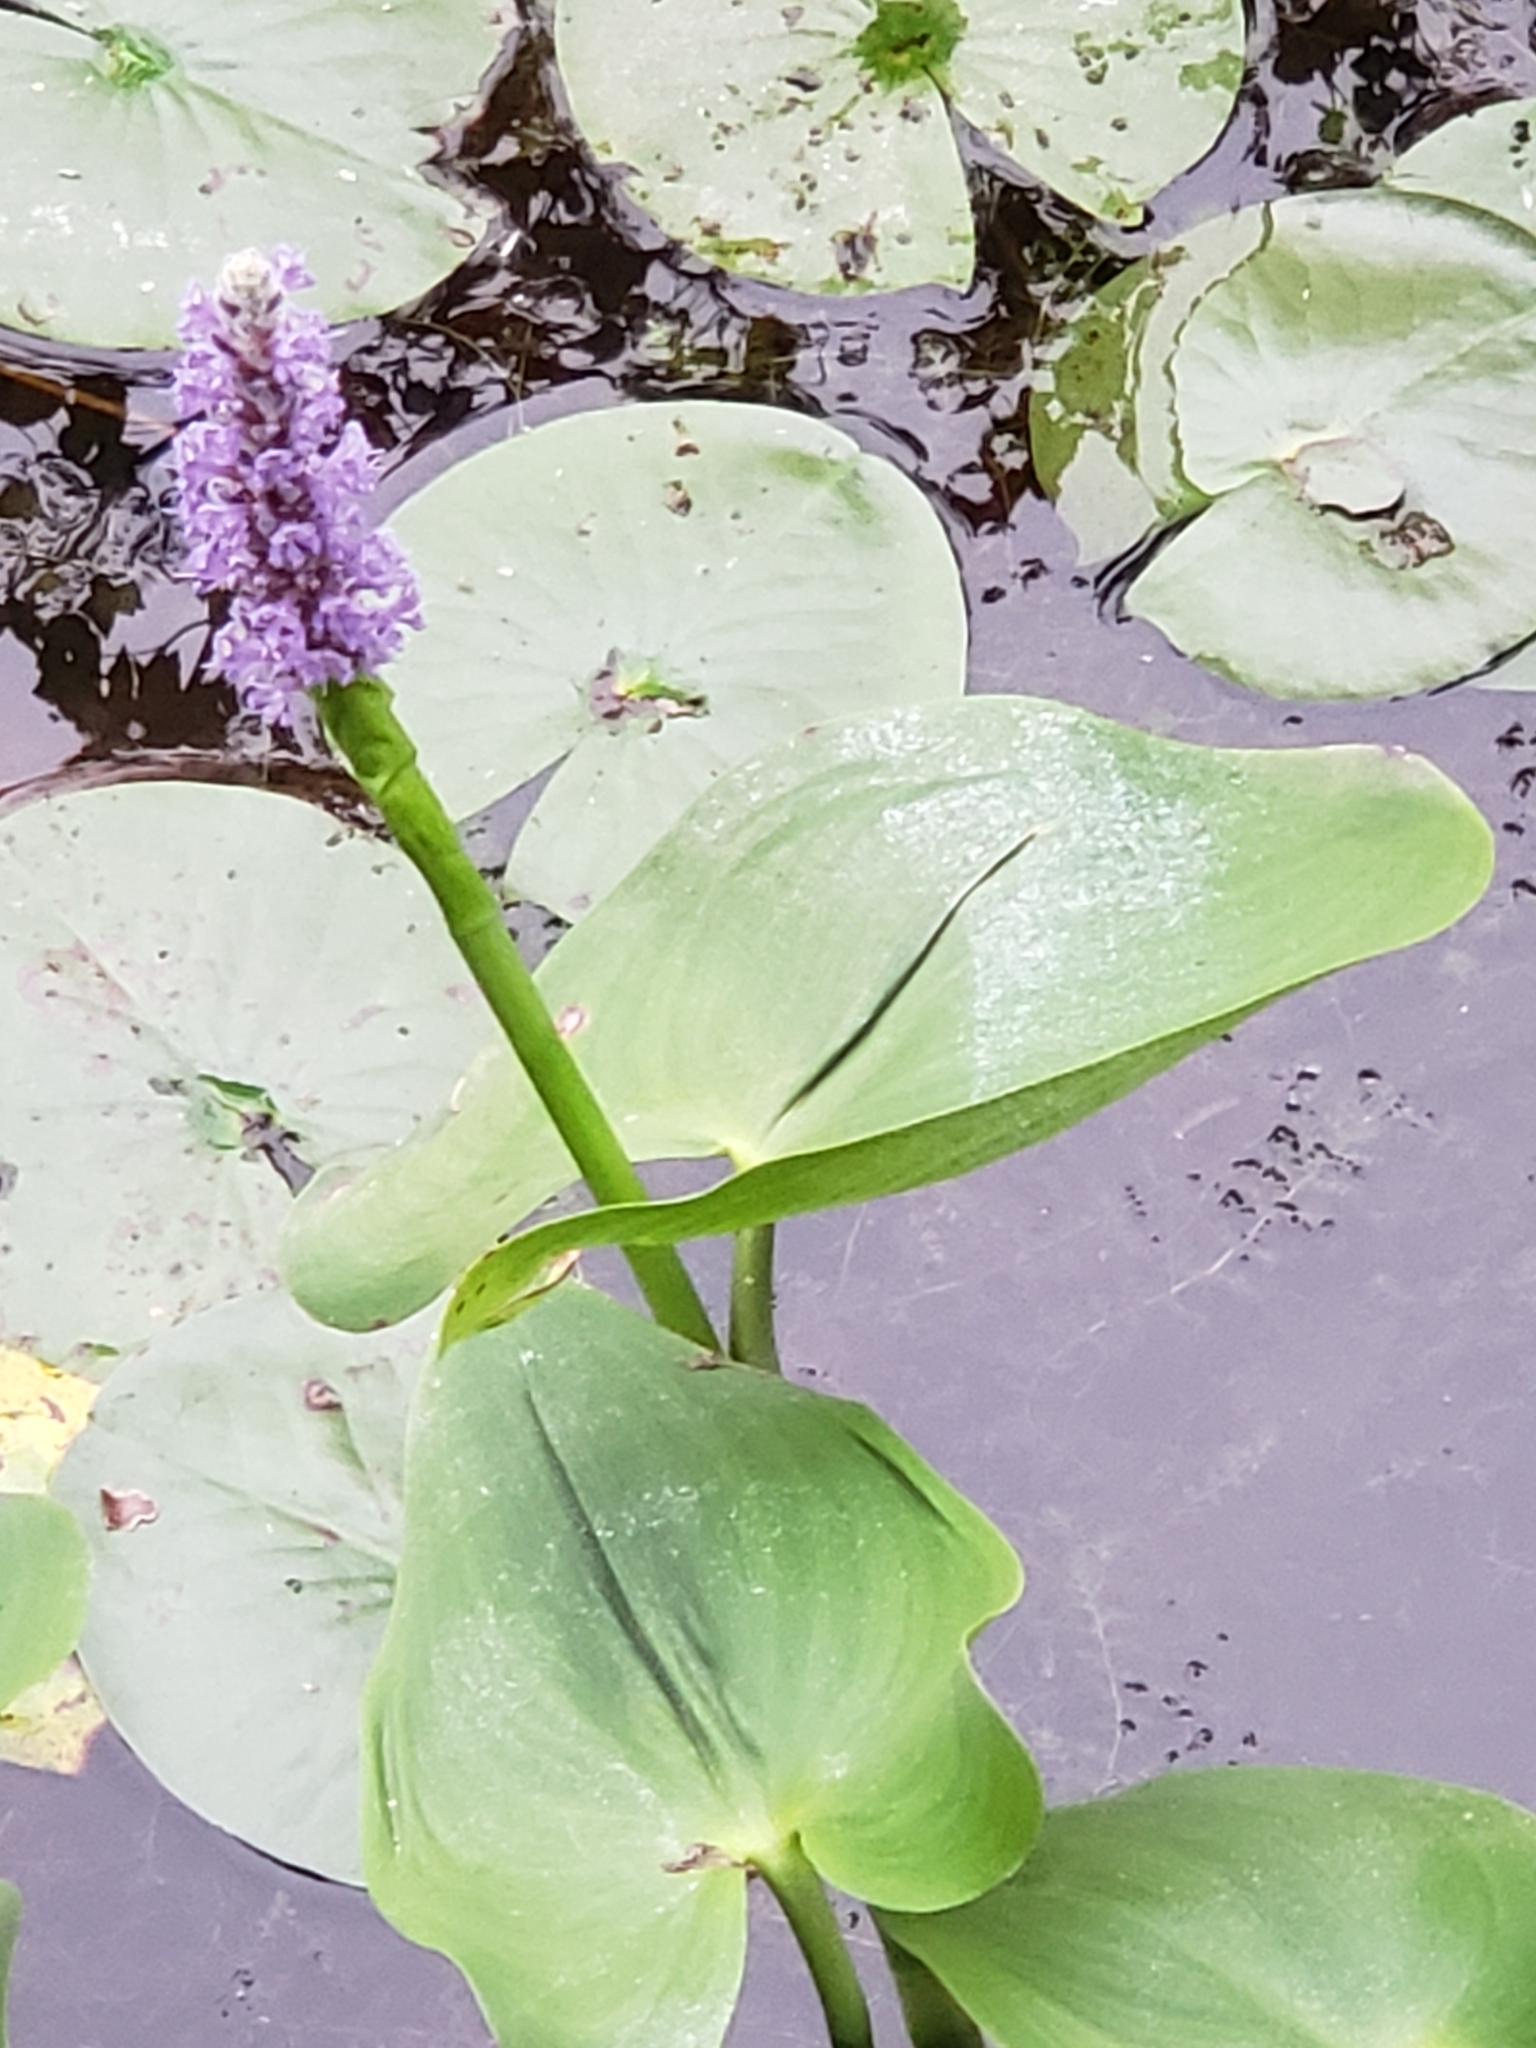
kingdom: Plantae
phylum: Tracheophyta
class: Liliopsida
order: Commelinales
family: Pontederiaceae
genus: Pontederia
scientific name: Pontederia cordata
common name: Pickerelweed
